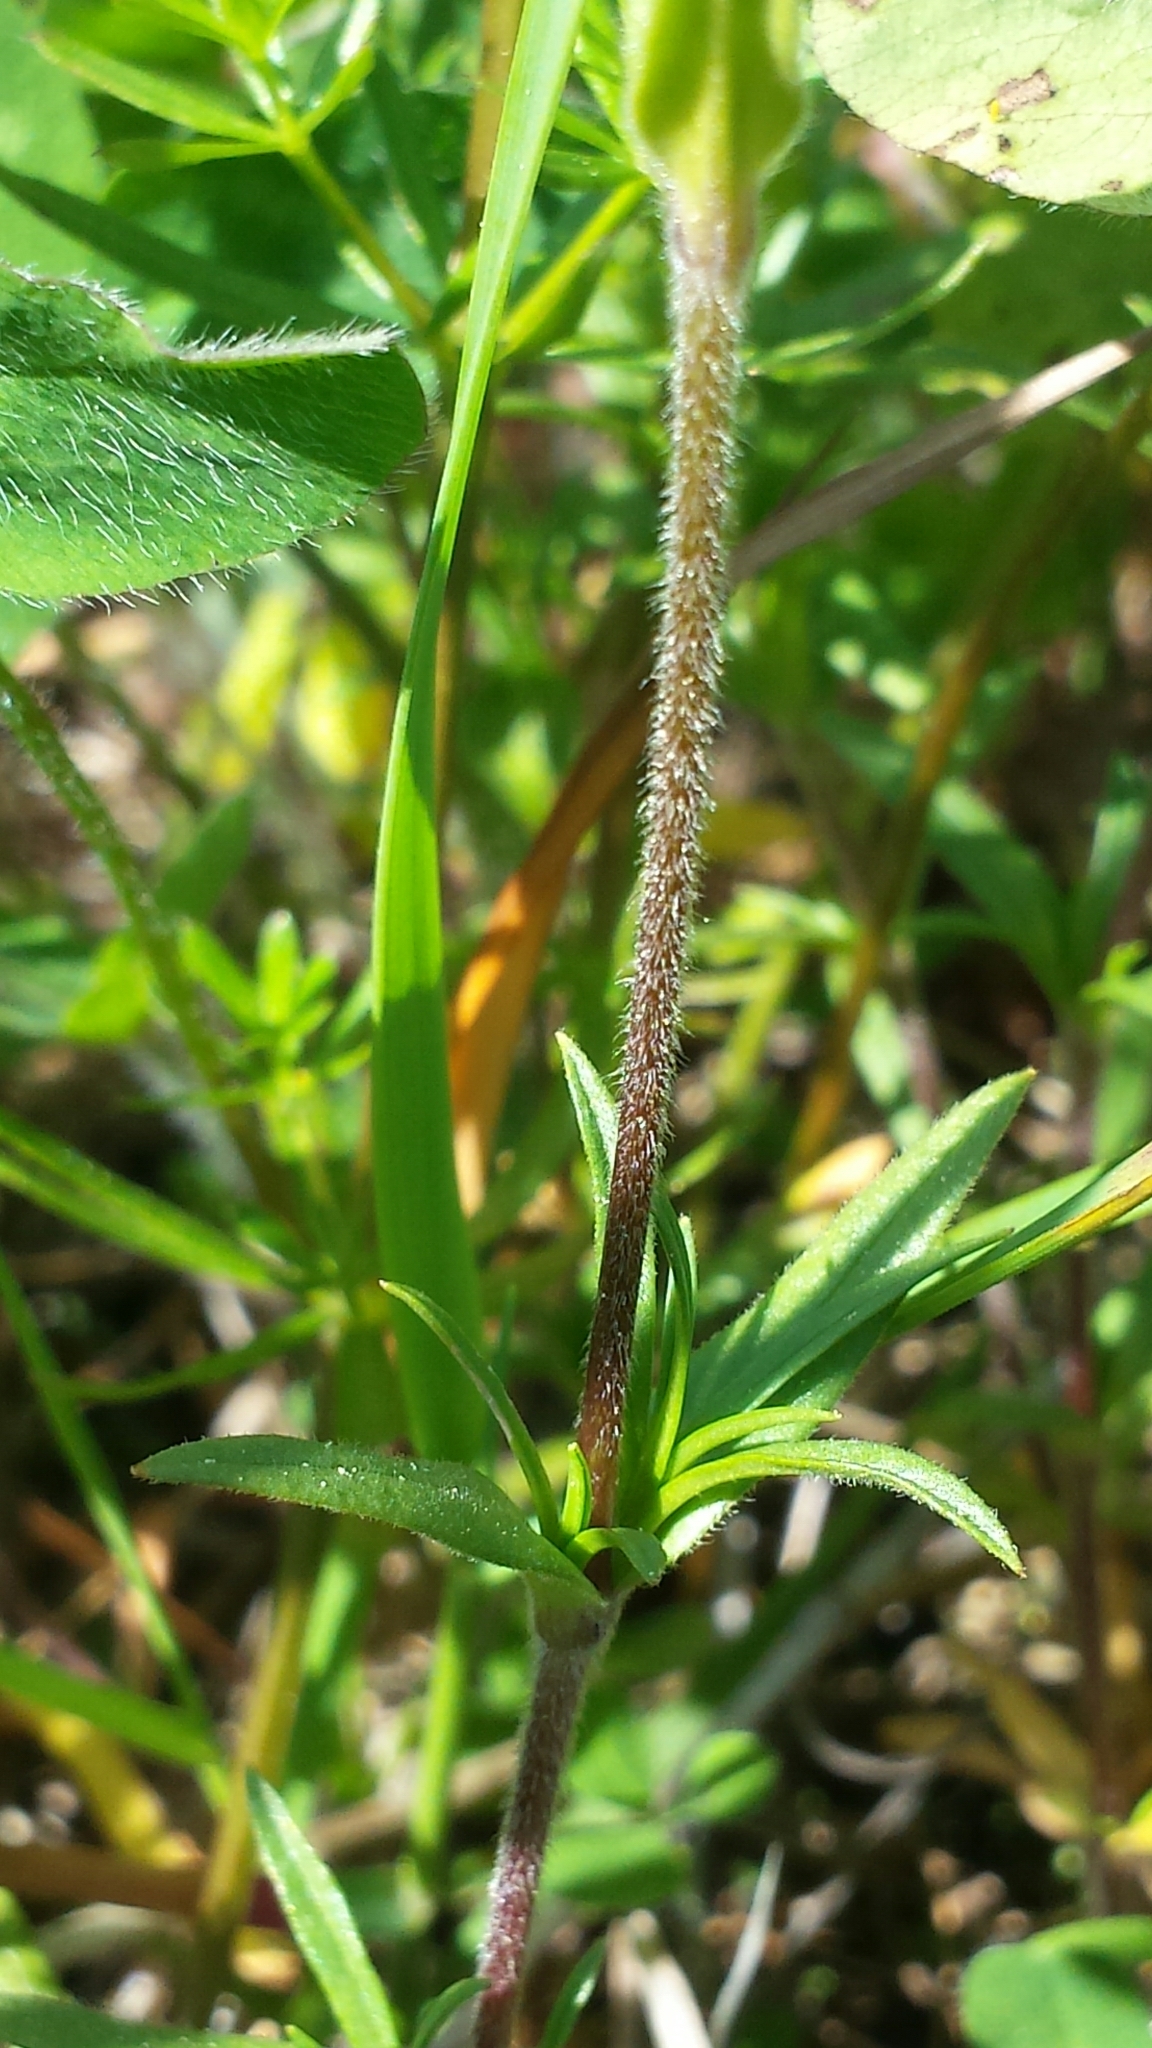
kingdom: Plantae
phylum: Tracheophyta
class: Magnoliopsida
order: Caryophyllales
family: Caryophyllaceae
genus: Cerastium
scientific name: Cerastium arvense
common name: Field mouse-ear
